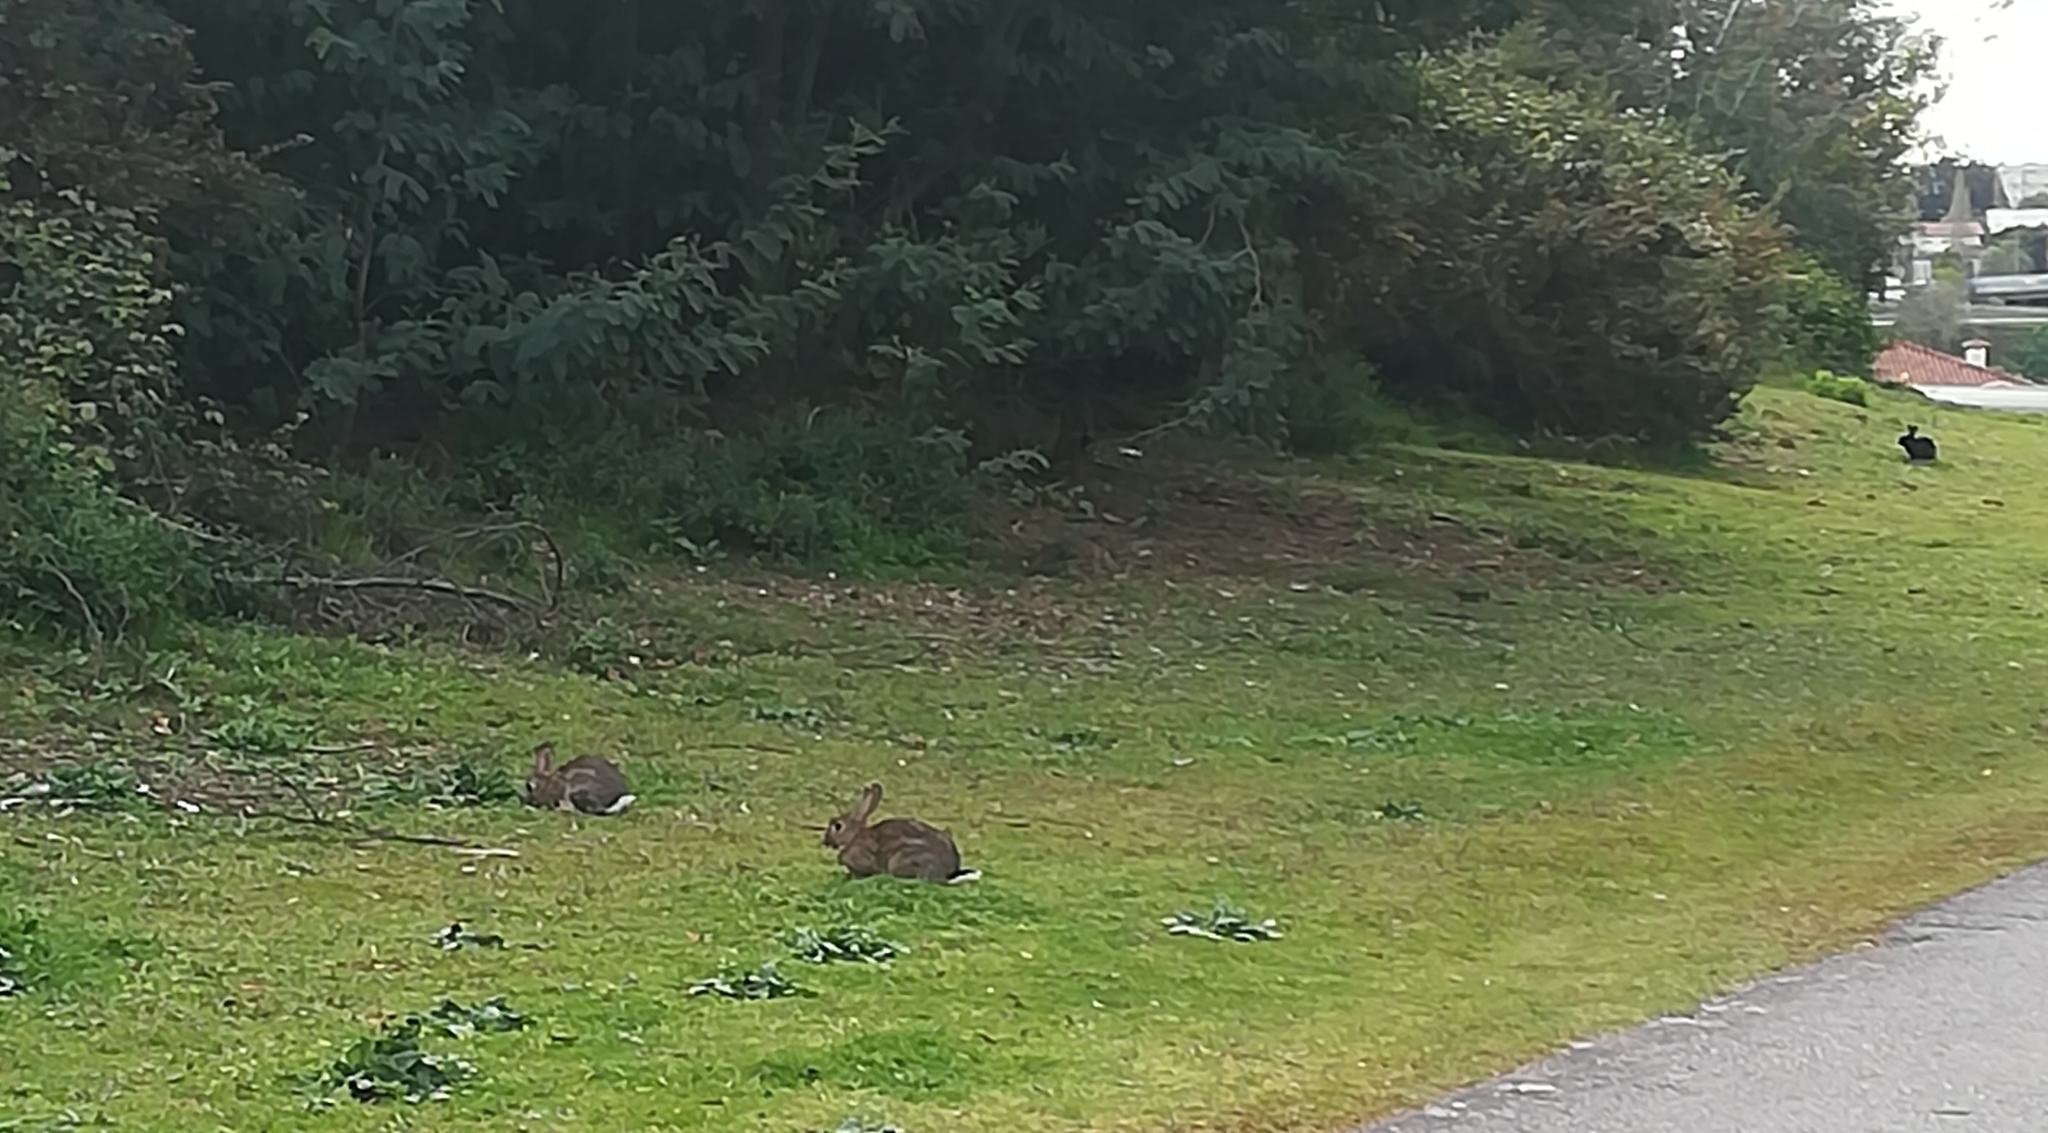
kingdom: Animalia
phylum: Chordata
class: Mammalia
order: Lagomorpha
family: Leporidae
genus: Oryctolagus
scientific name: Oryctolagus cuniculus
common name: European rabbit
